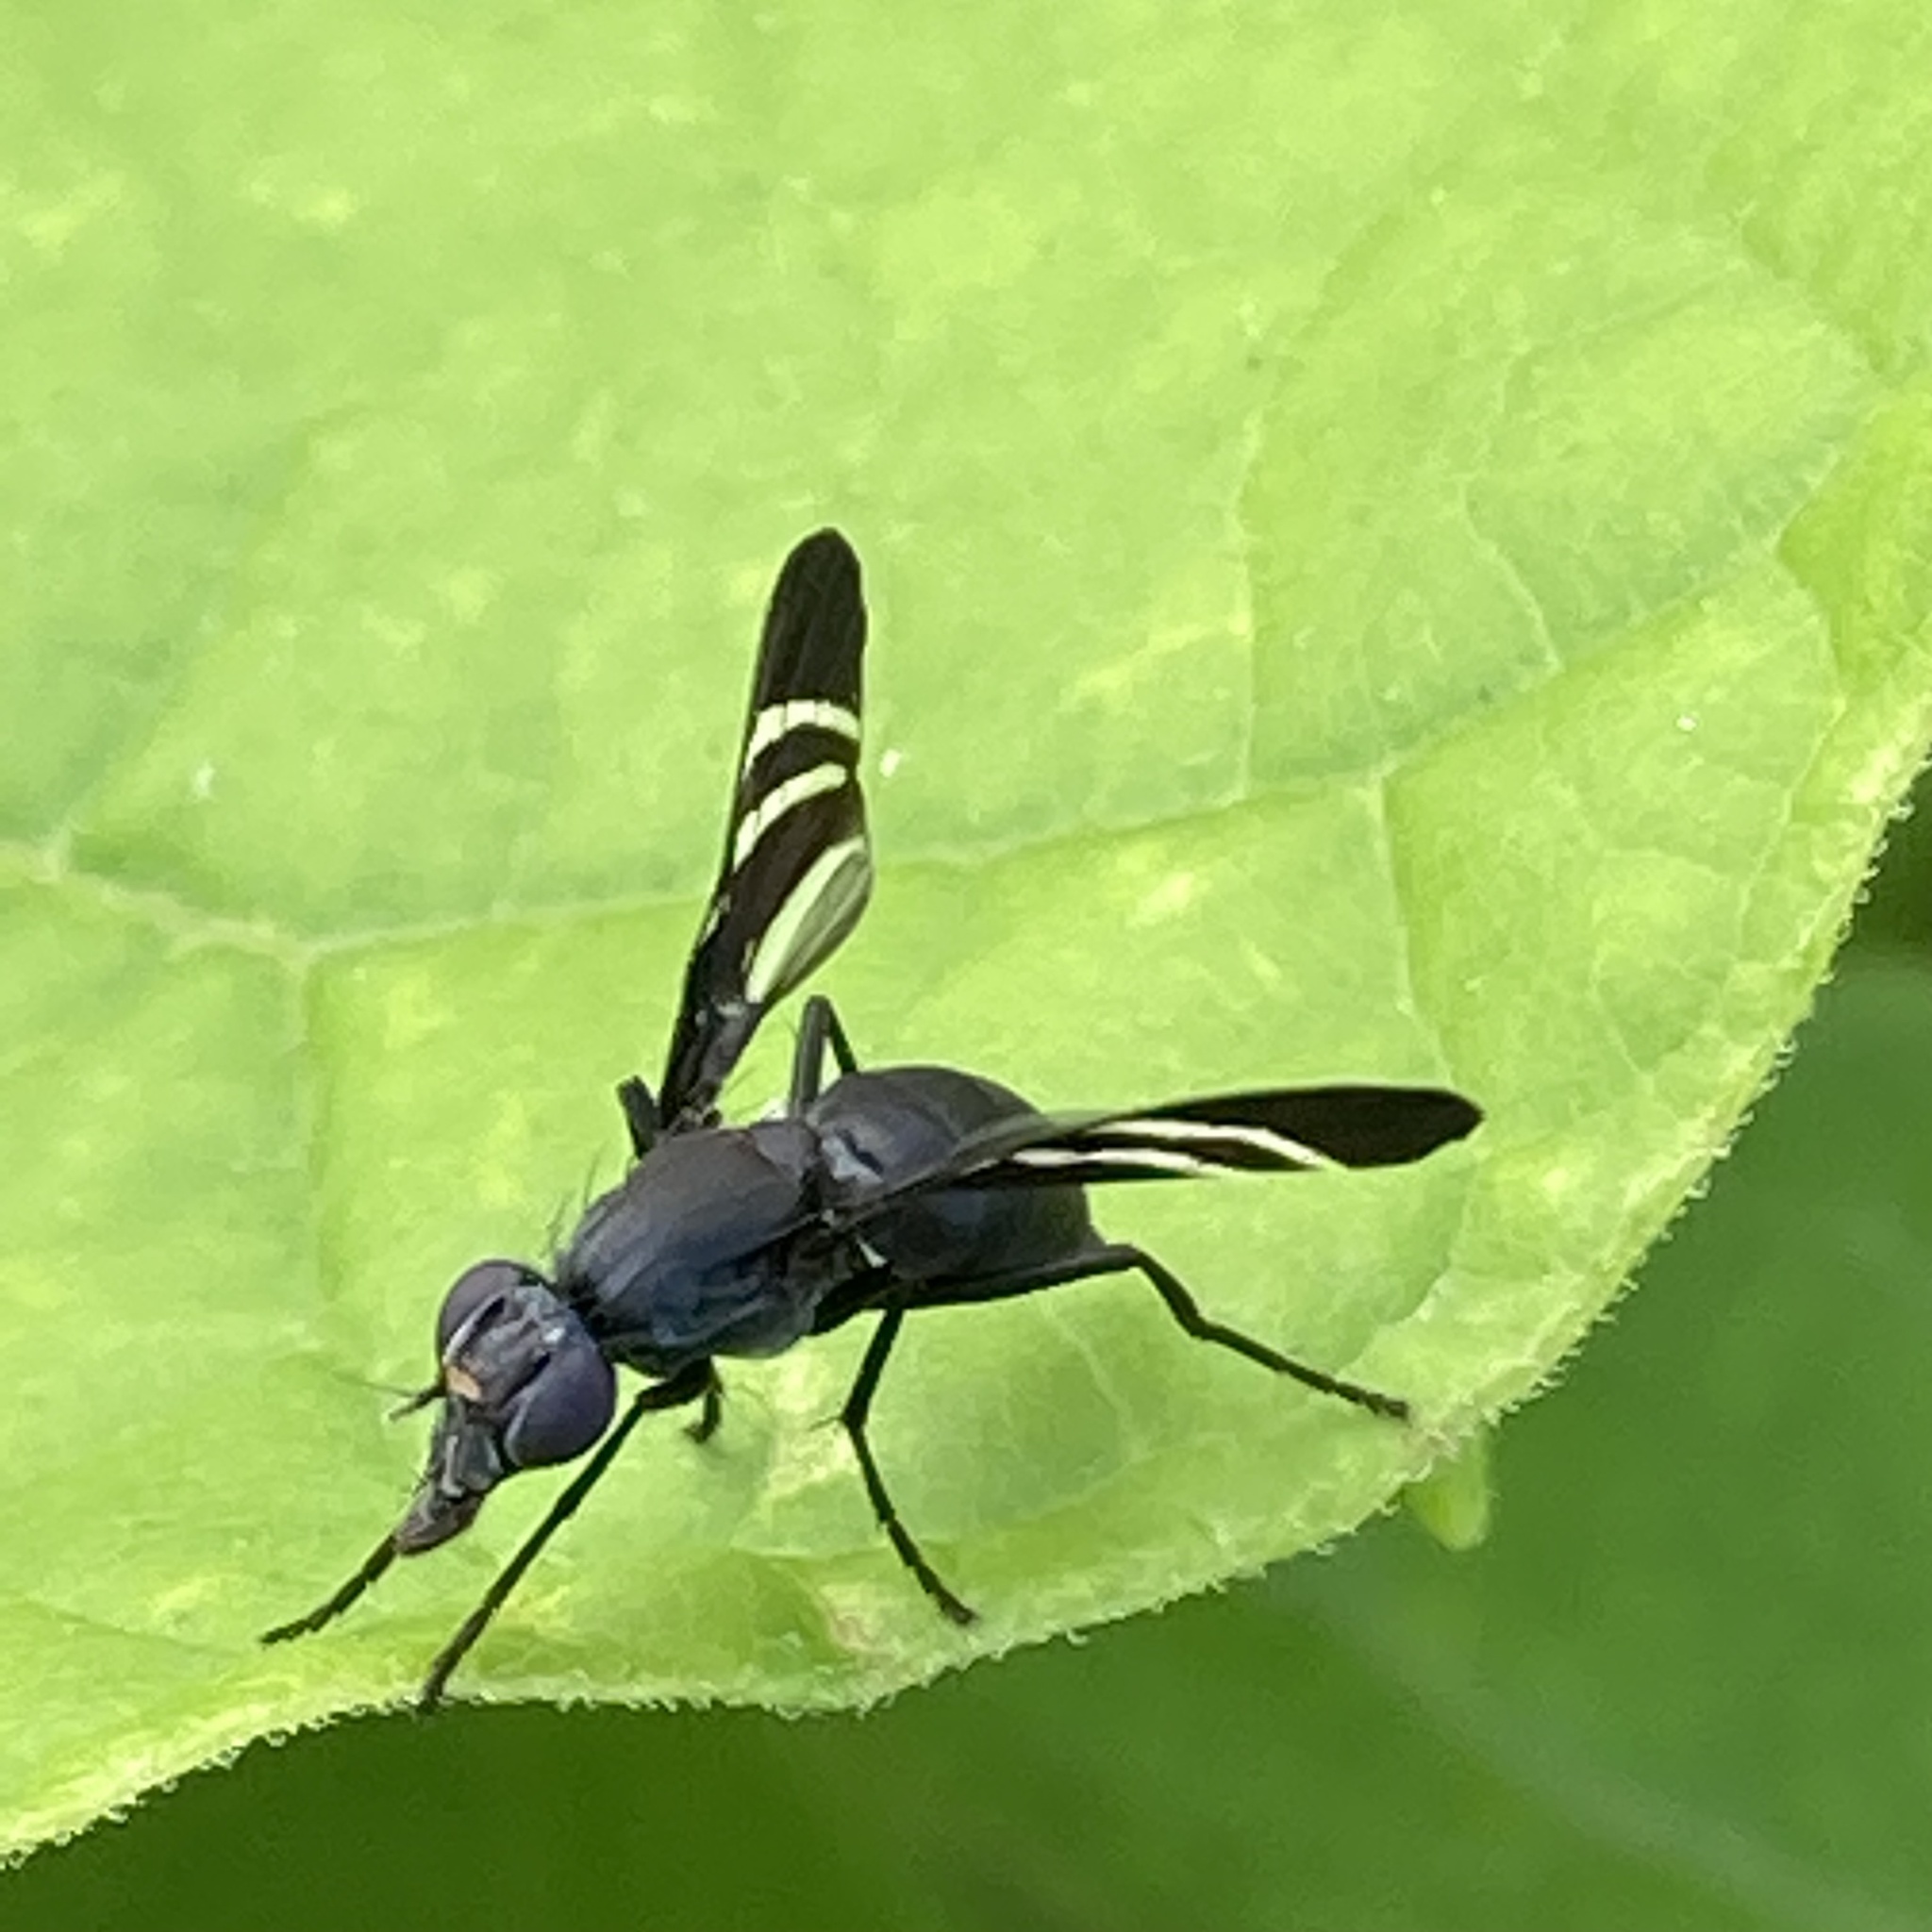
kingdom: Animalia
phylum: Arthropoda
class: Insecta
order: Diptera
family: Ulidiidae
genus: Tritoxa
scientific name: Tritoxa flexa
